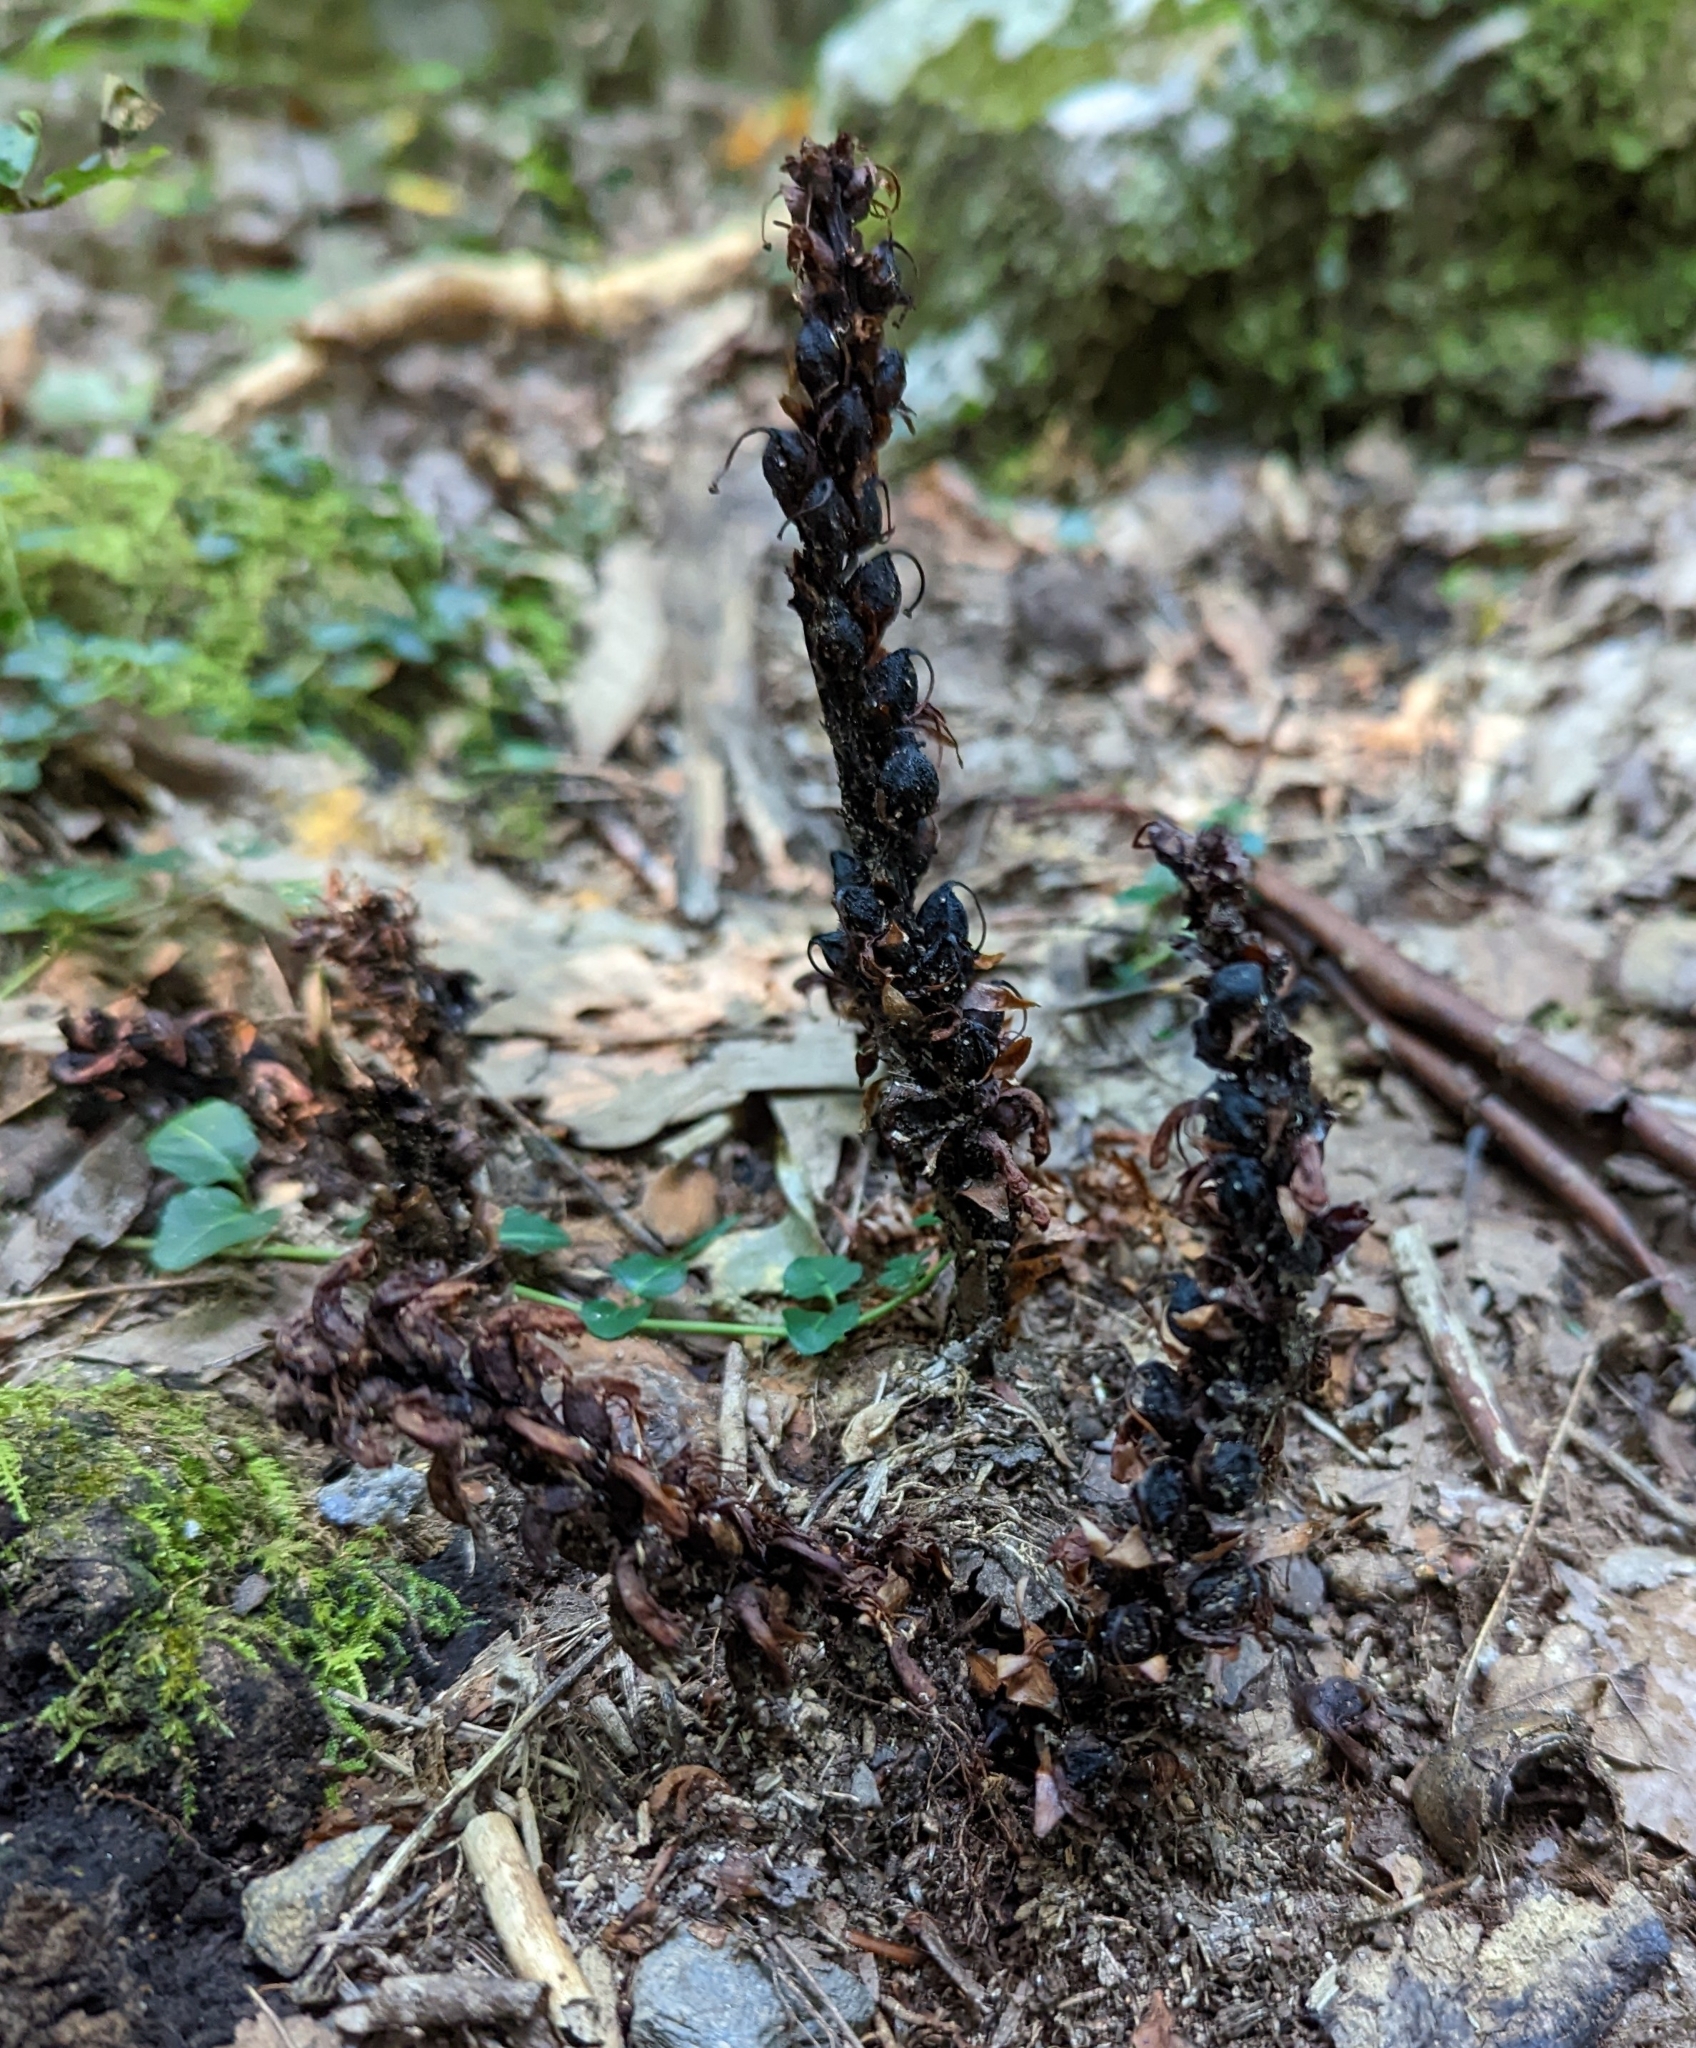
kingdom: Plantae
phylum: Tracheophyta
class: Magnoliopsida
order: Lamiales
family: Orobanchaceae
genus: Conopholis
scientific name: Conopholis americana
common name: American cancer-root
